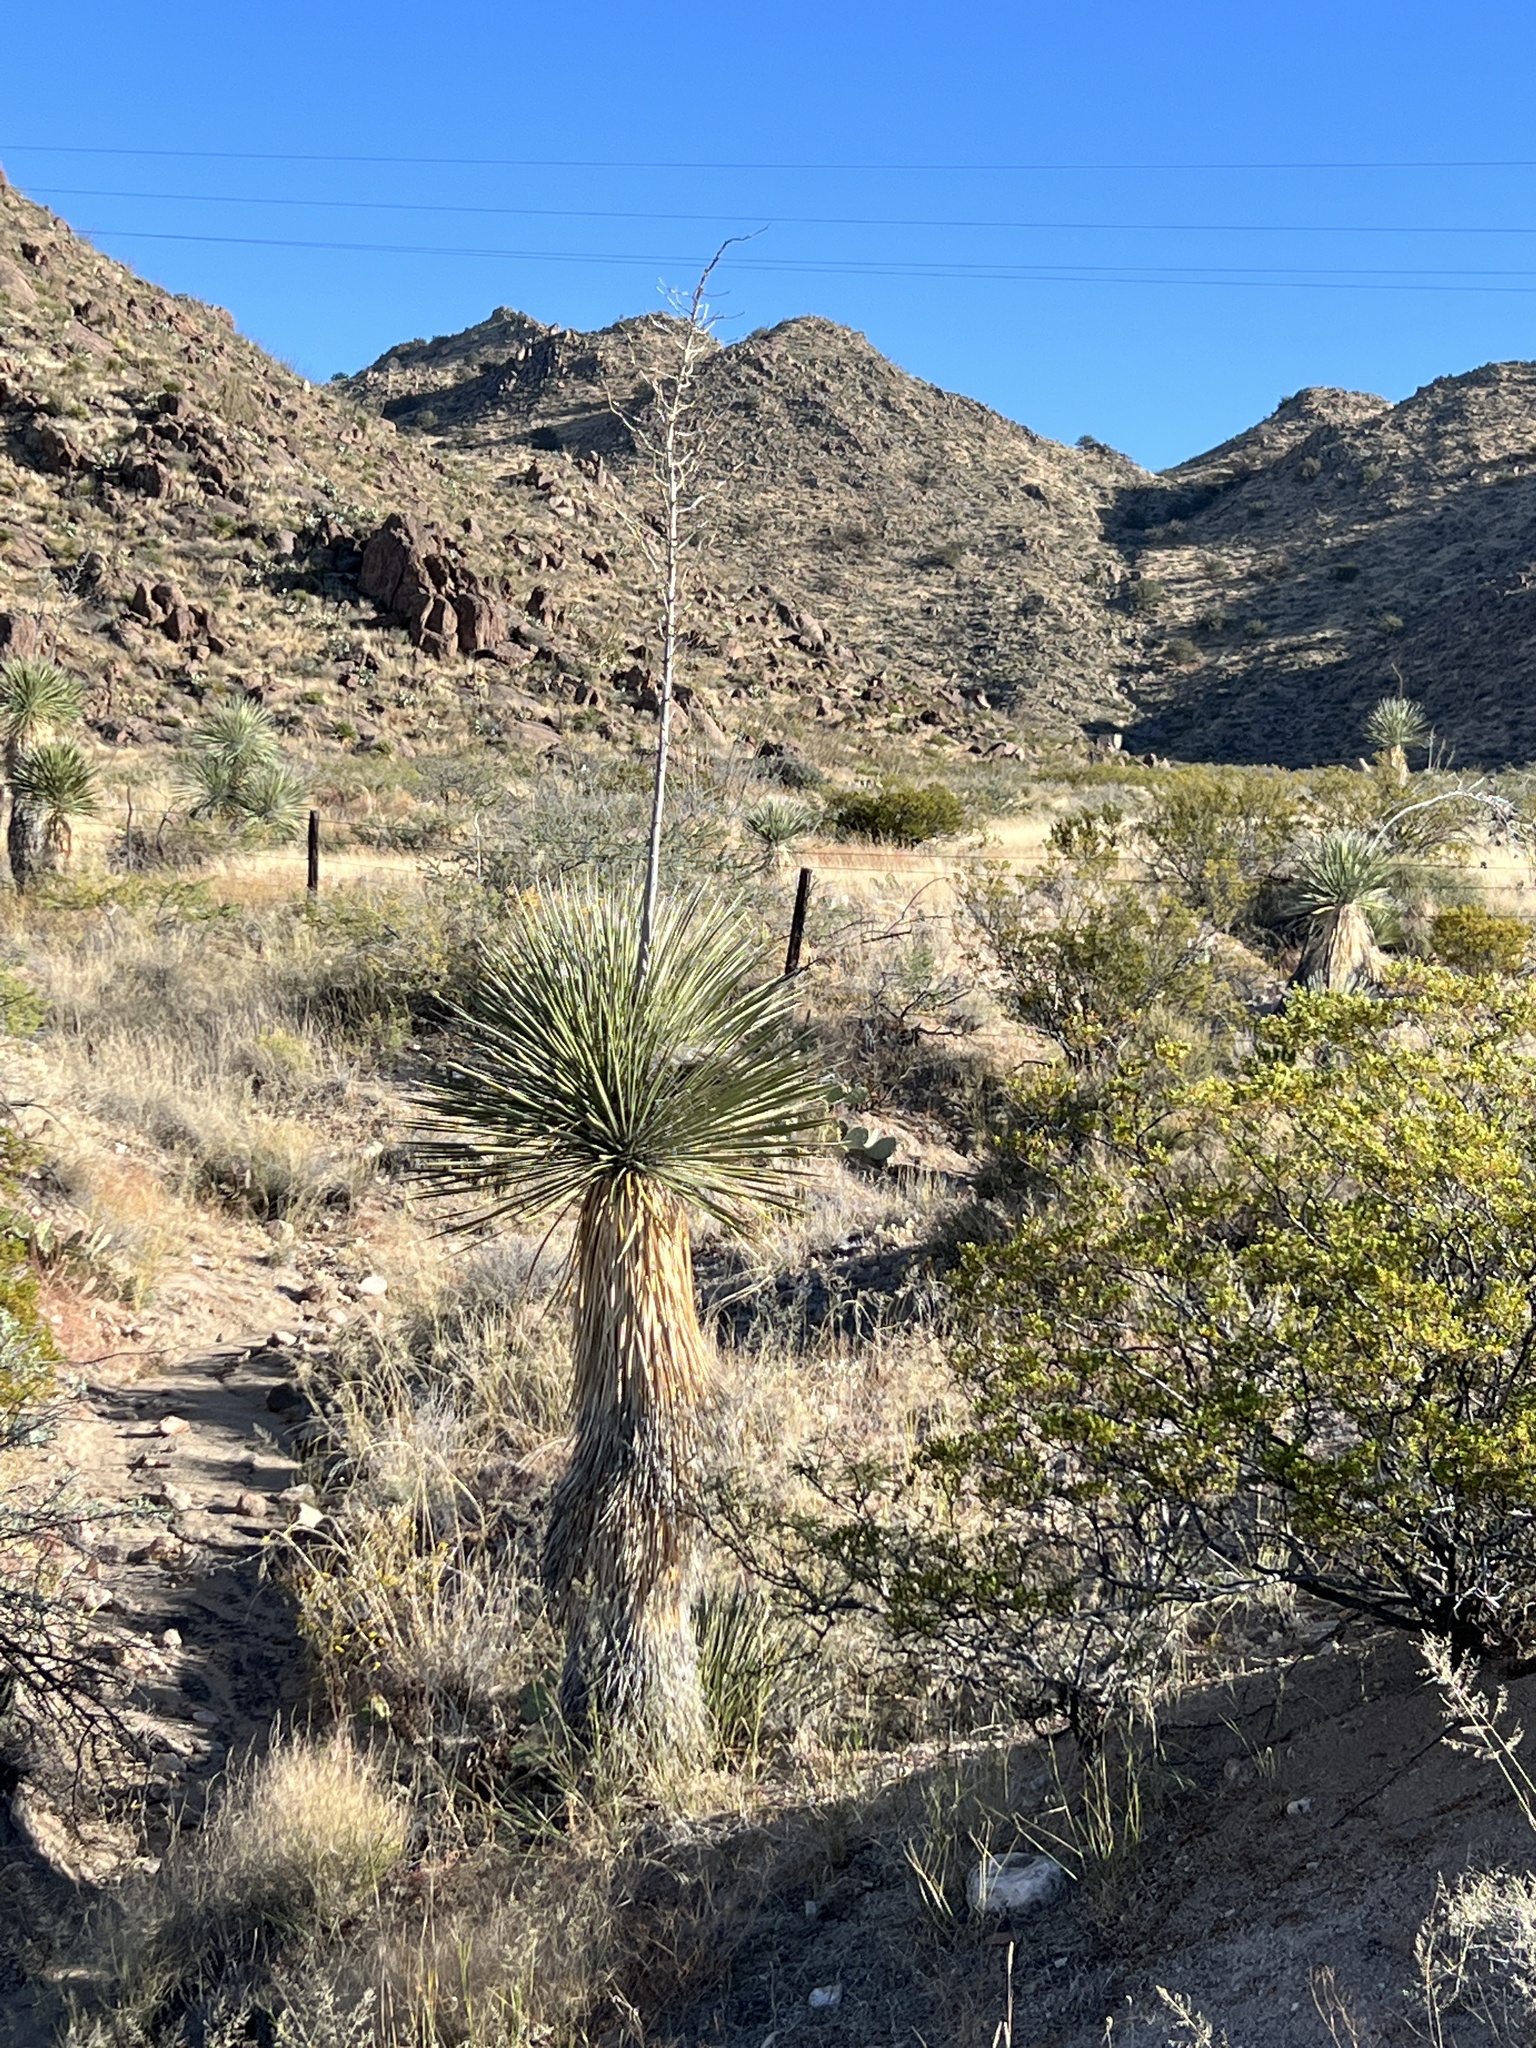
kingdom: Plantae
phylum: Tracheophyta
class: Liliopsida
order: Asparagales
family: Asparagaceae
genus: Yucca
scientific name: Yucca elata
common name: Palmella
